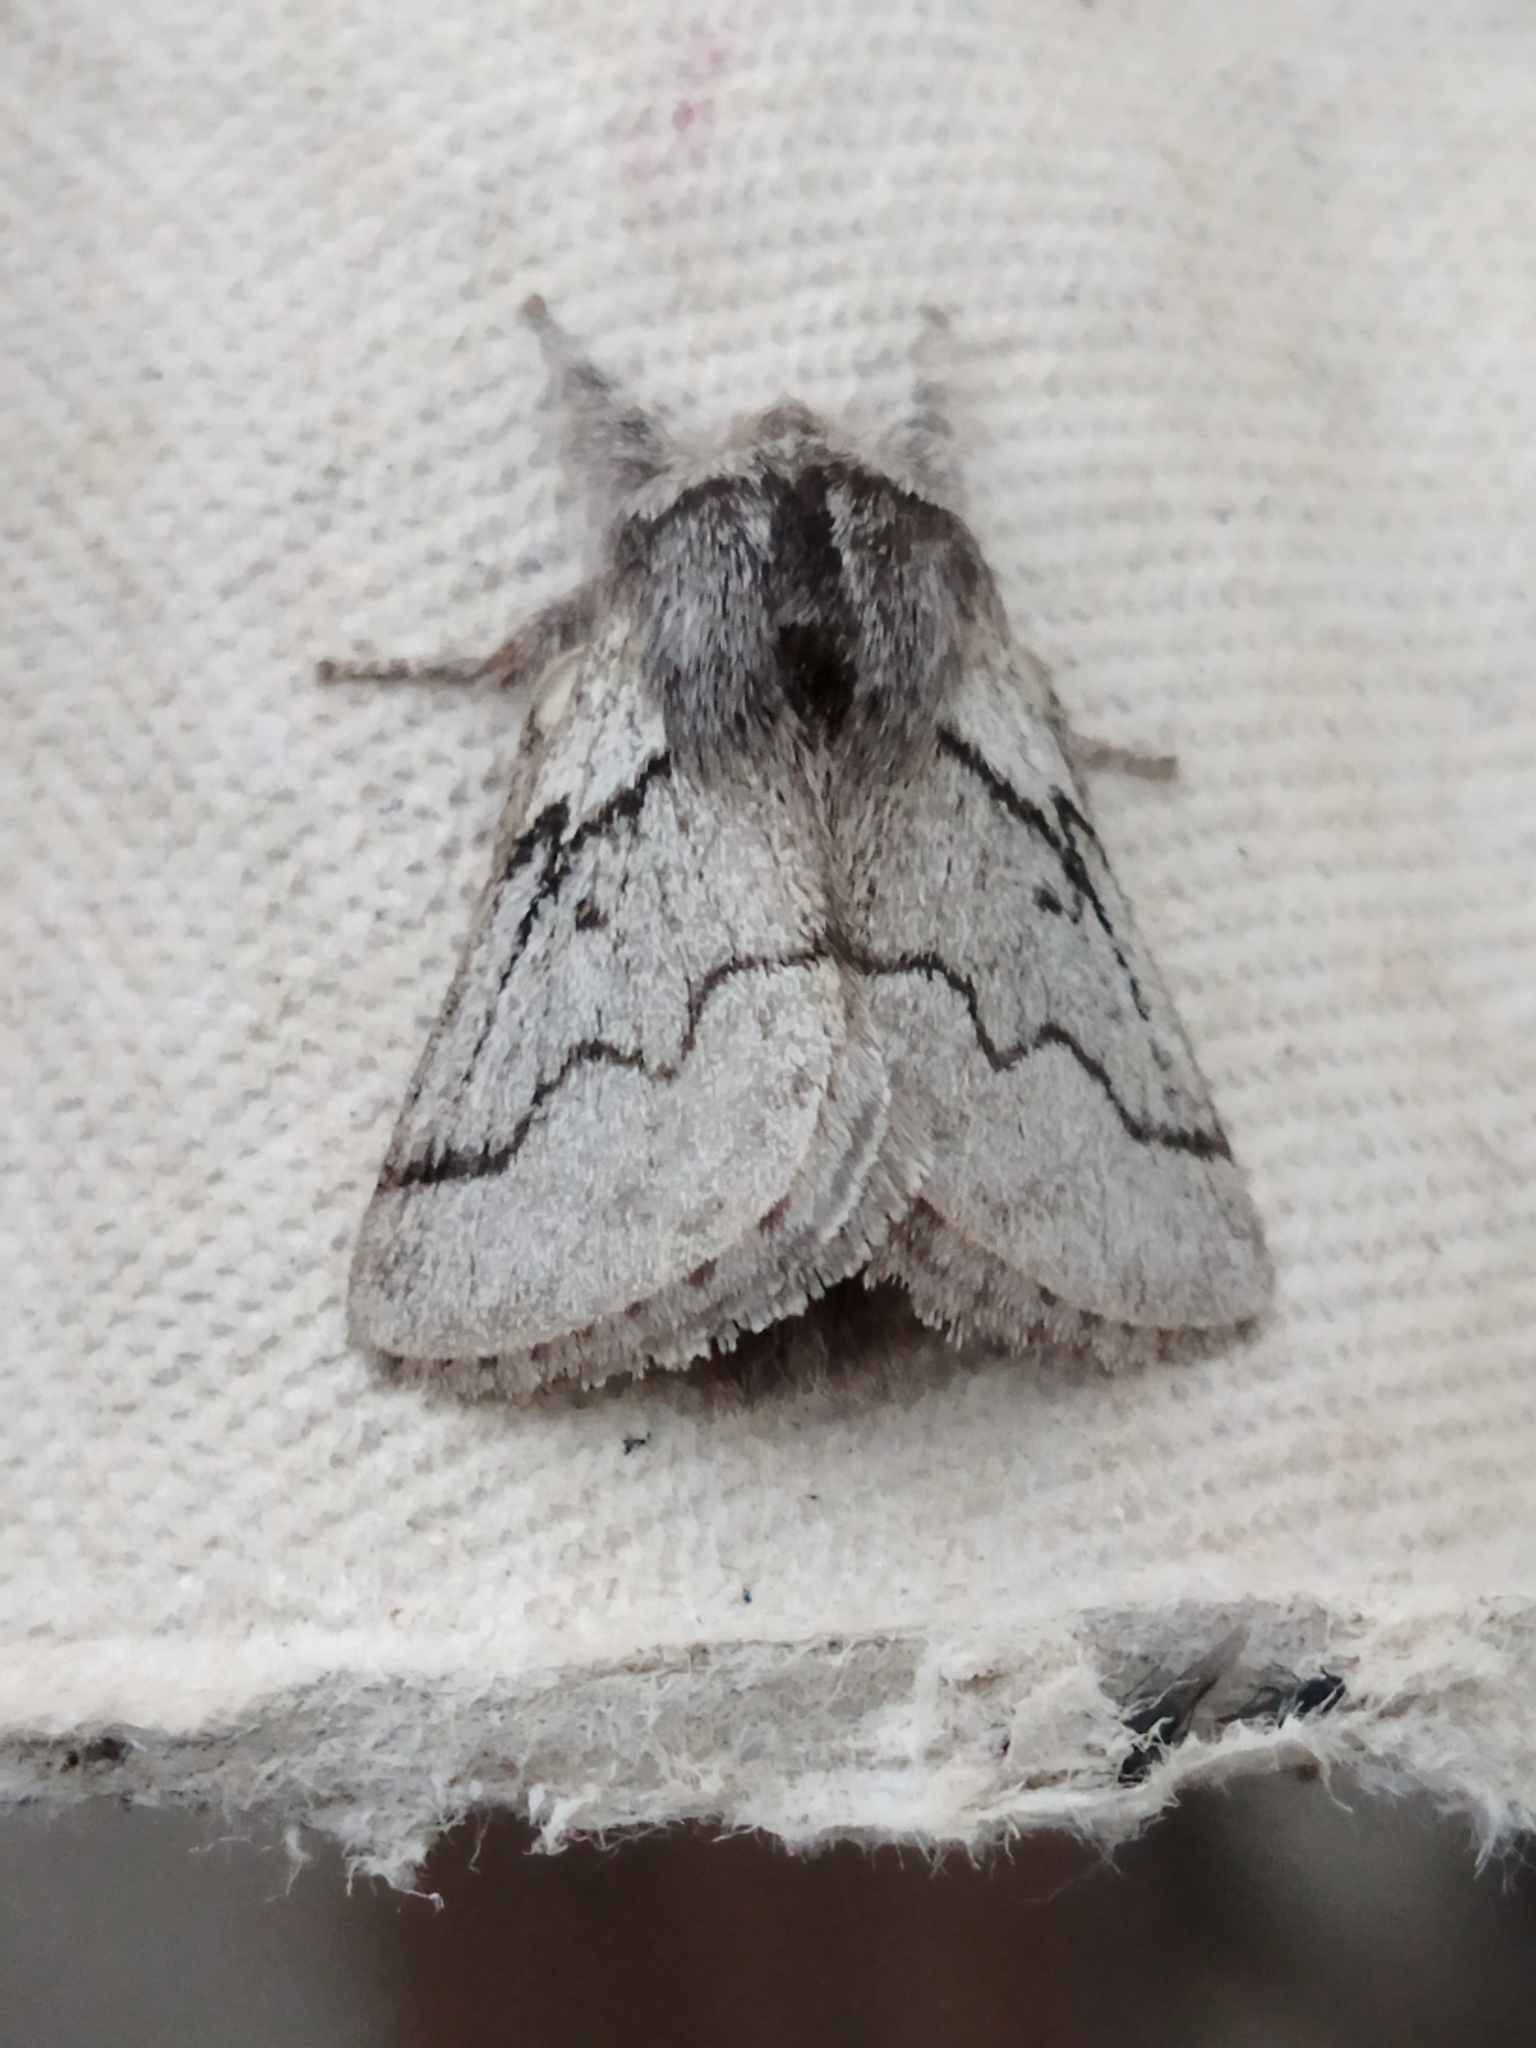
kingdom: Animalia
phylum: Arthropoda
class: Insecta
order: Lepidoptera
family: Lasiocampidae
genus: Trichiura
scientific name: Trichiura crataegi
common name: Pale eggar
